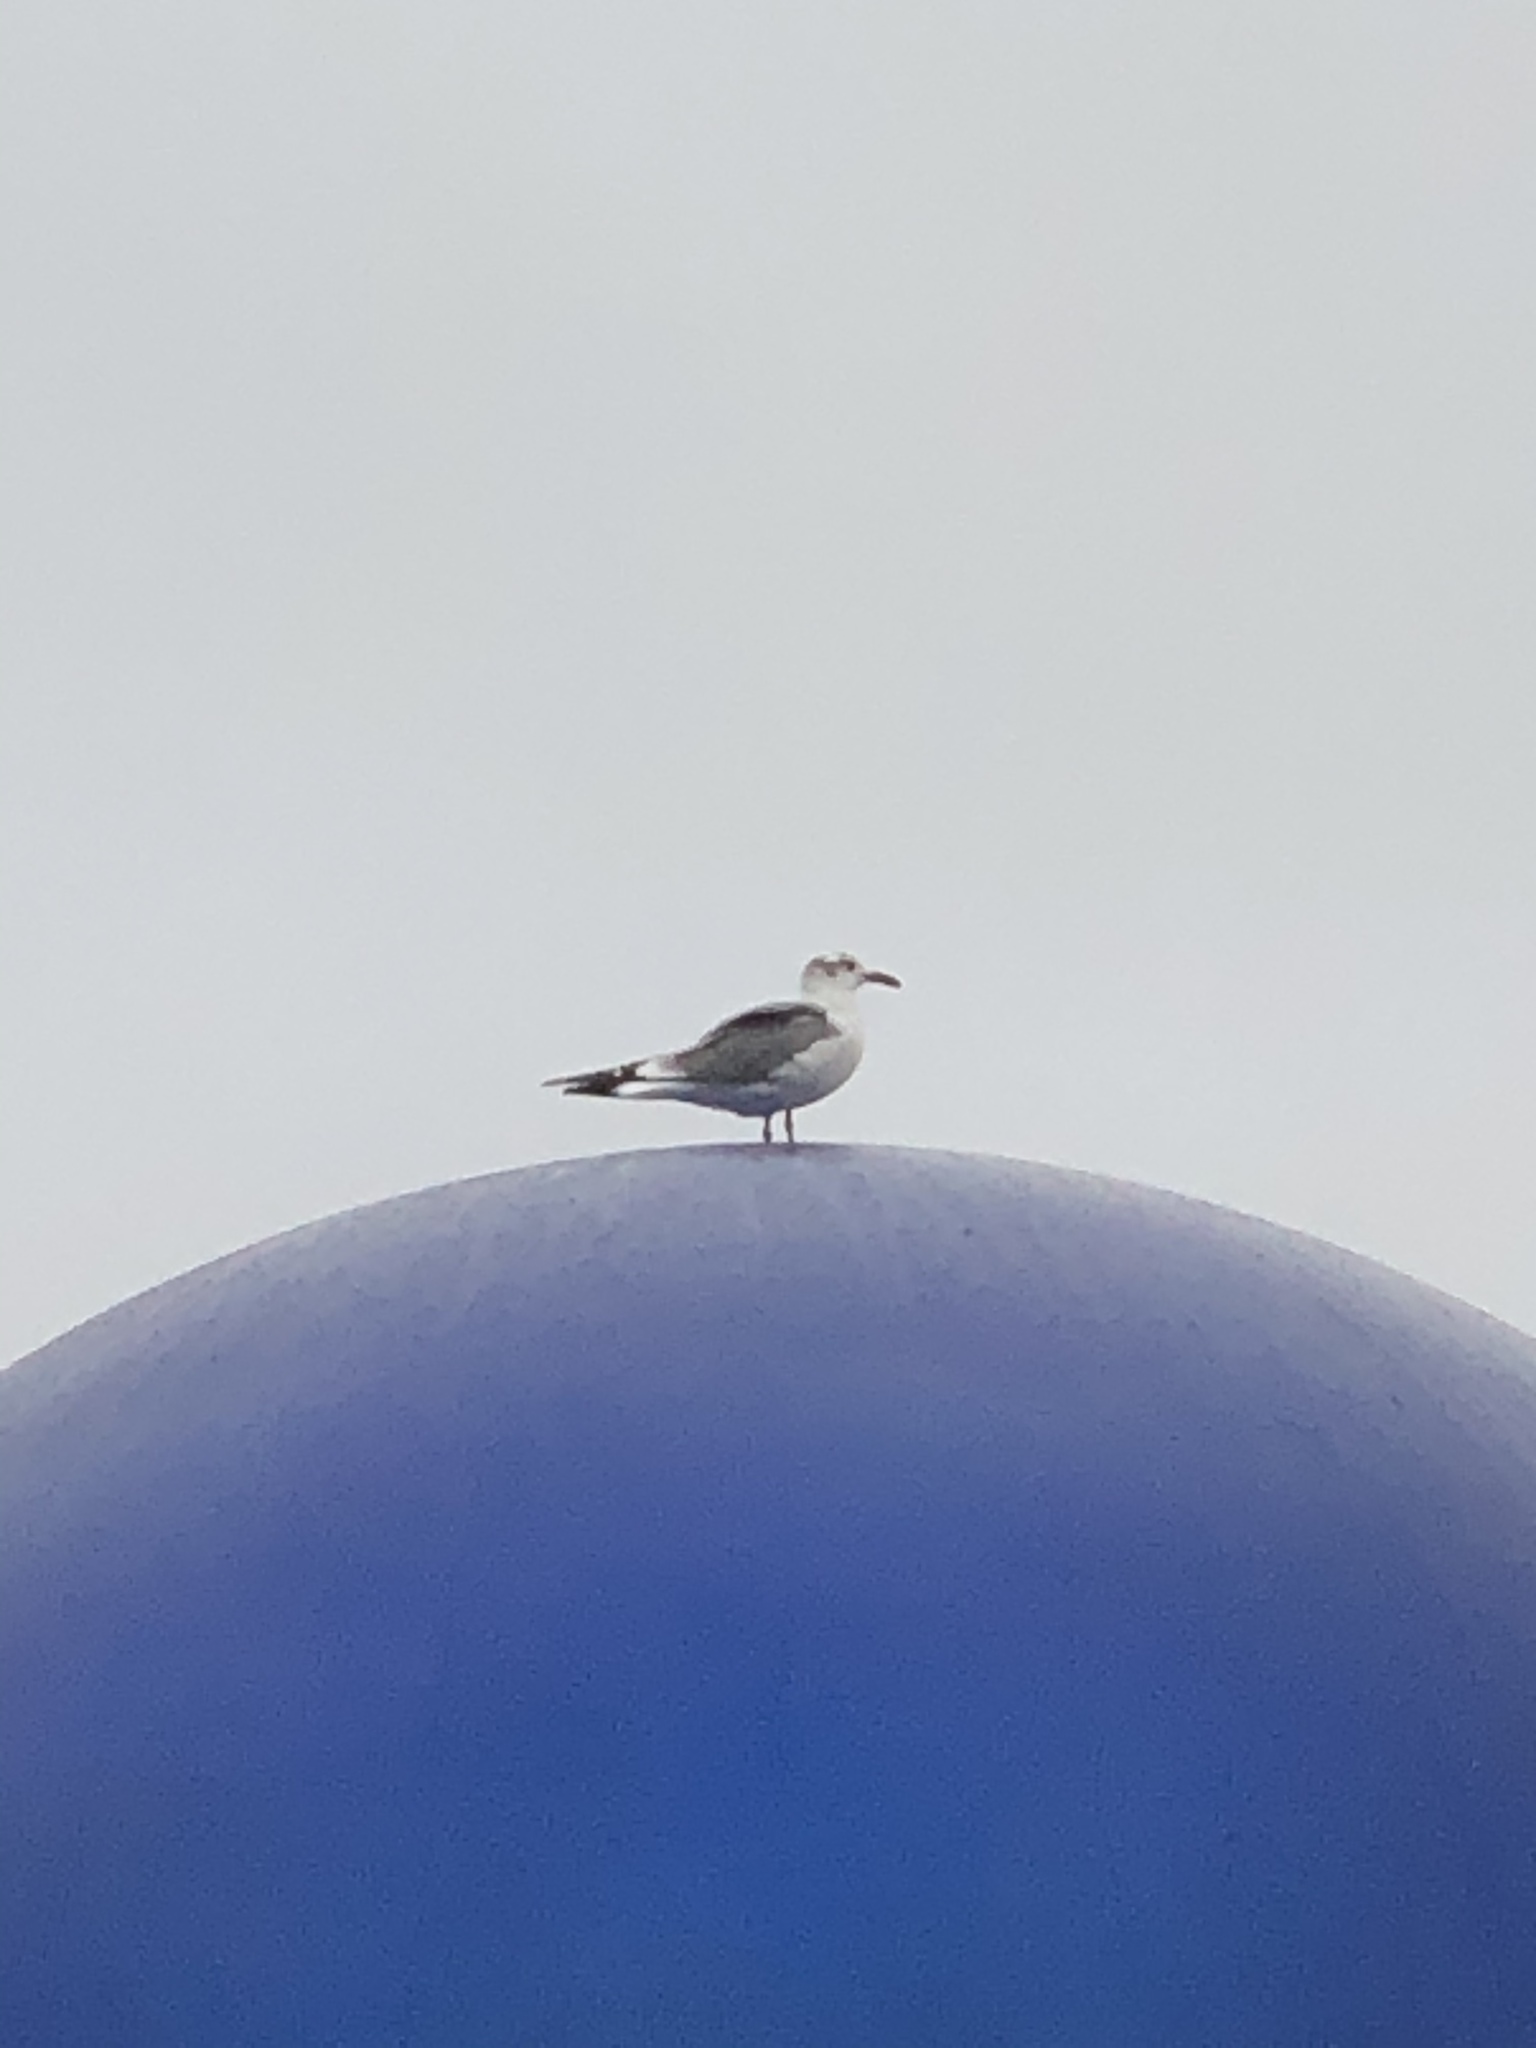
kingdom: Animalia
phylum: Chordata
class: Aves
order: Charadriiformes
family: Laridae
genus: Leucophaeus
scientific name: Leucophaeus atricilla
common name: Laughing gull
